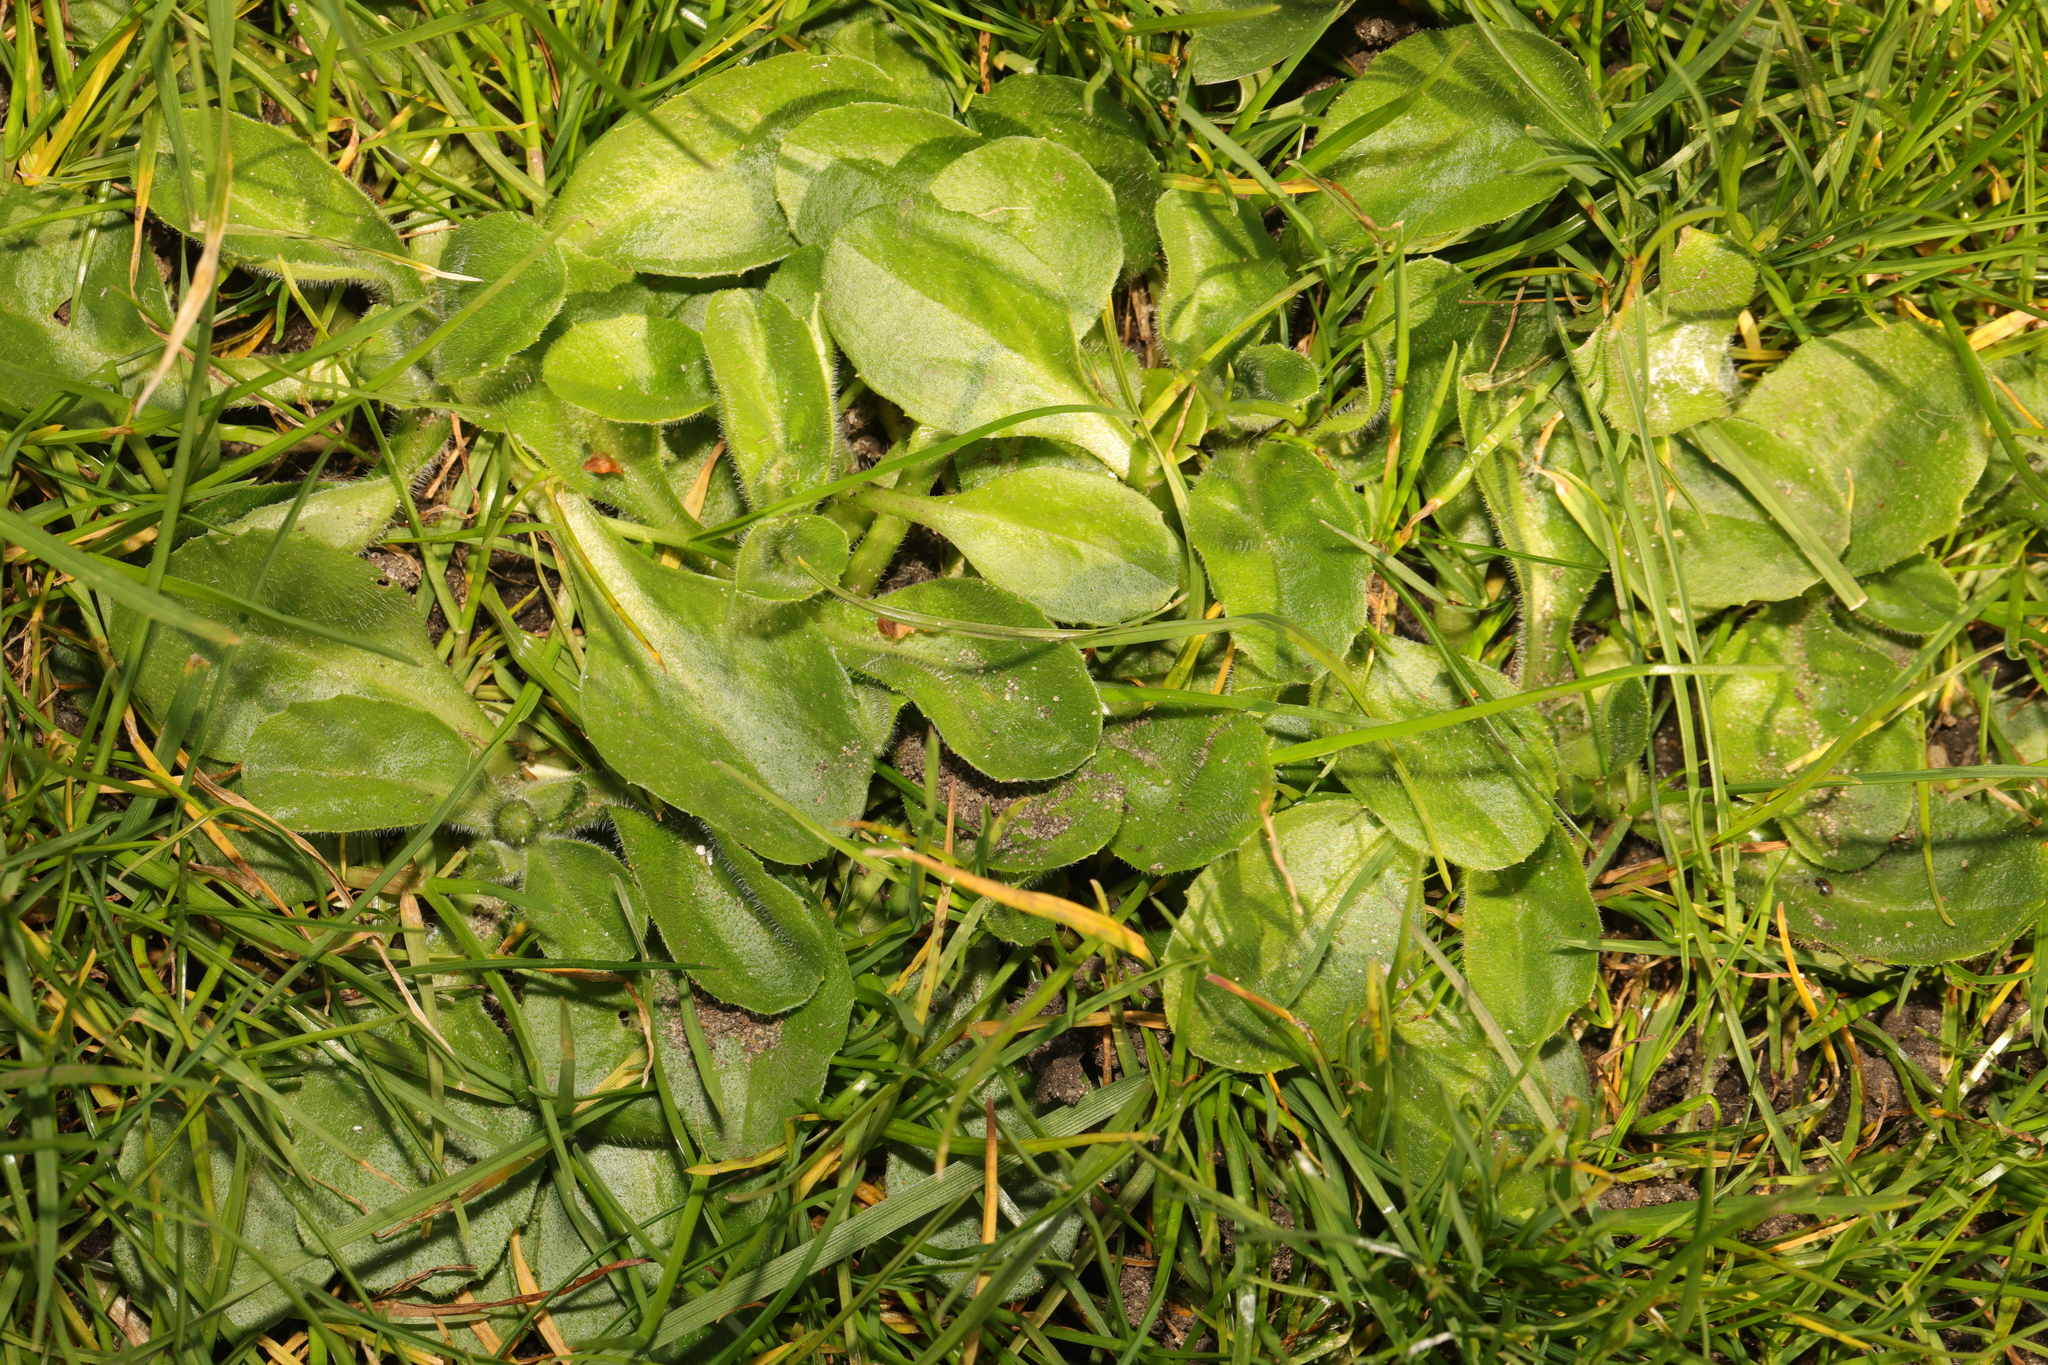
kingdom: Plantae
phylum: Tracheophyta
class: Magnoliopsida
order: Asterales
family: Asteraceae
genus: Bellis
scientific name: Bellis perennis
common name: Lawndaisy
